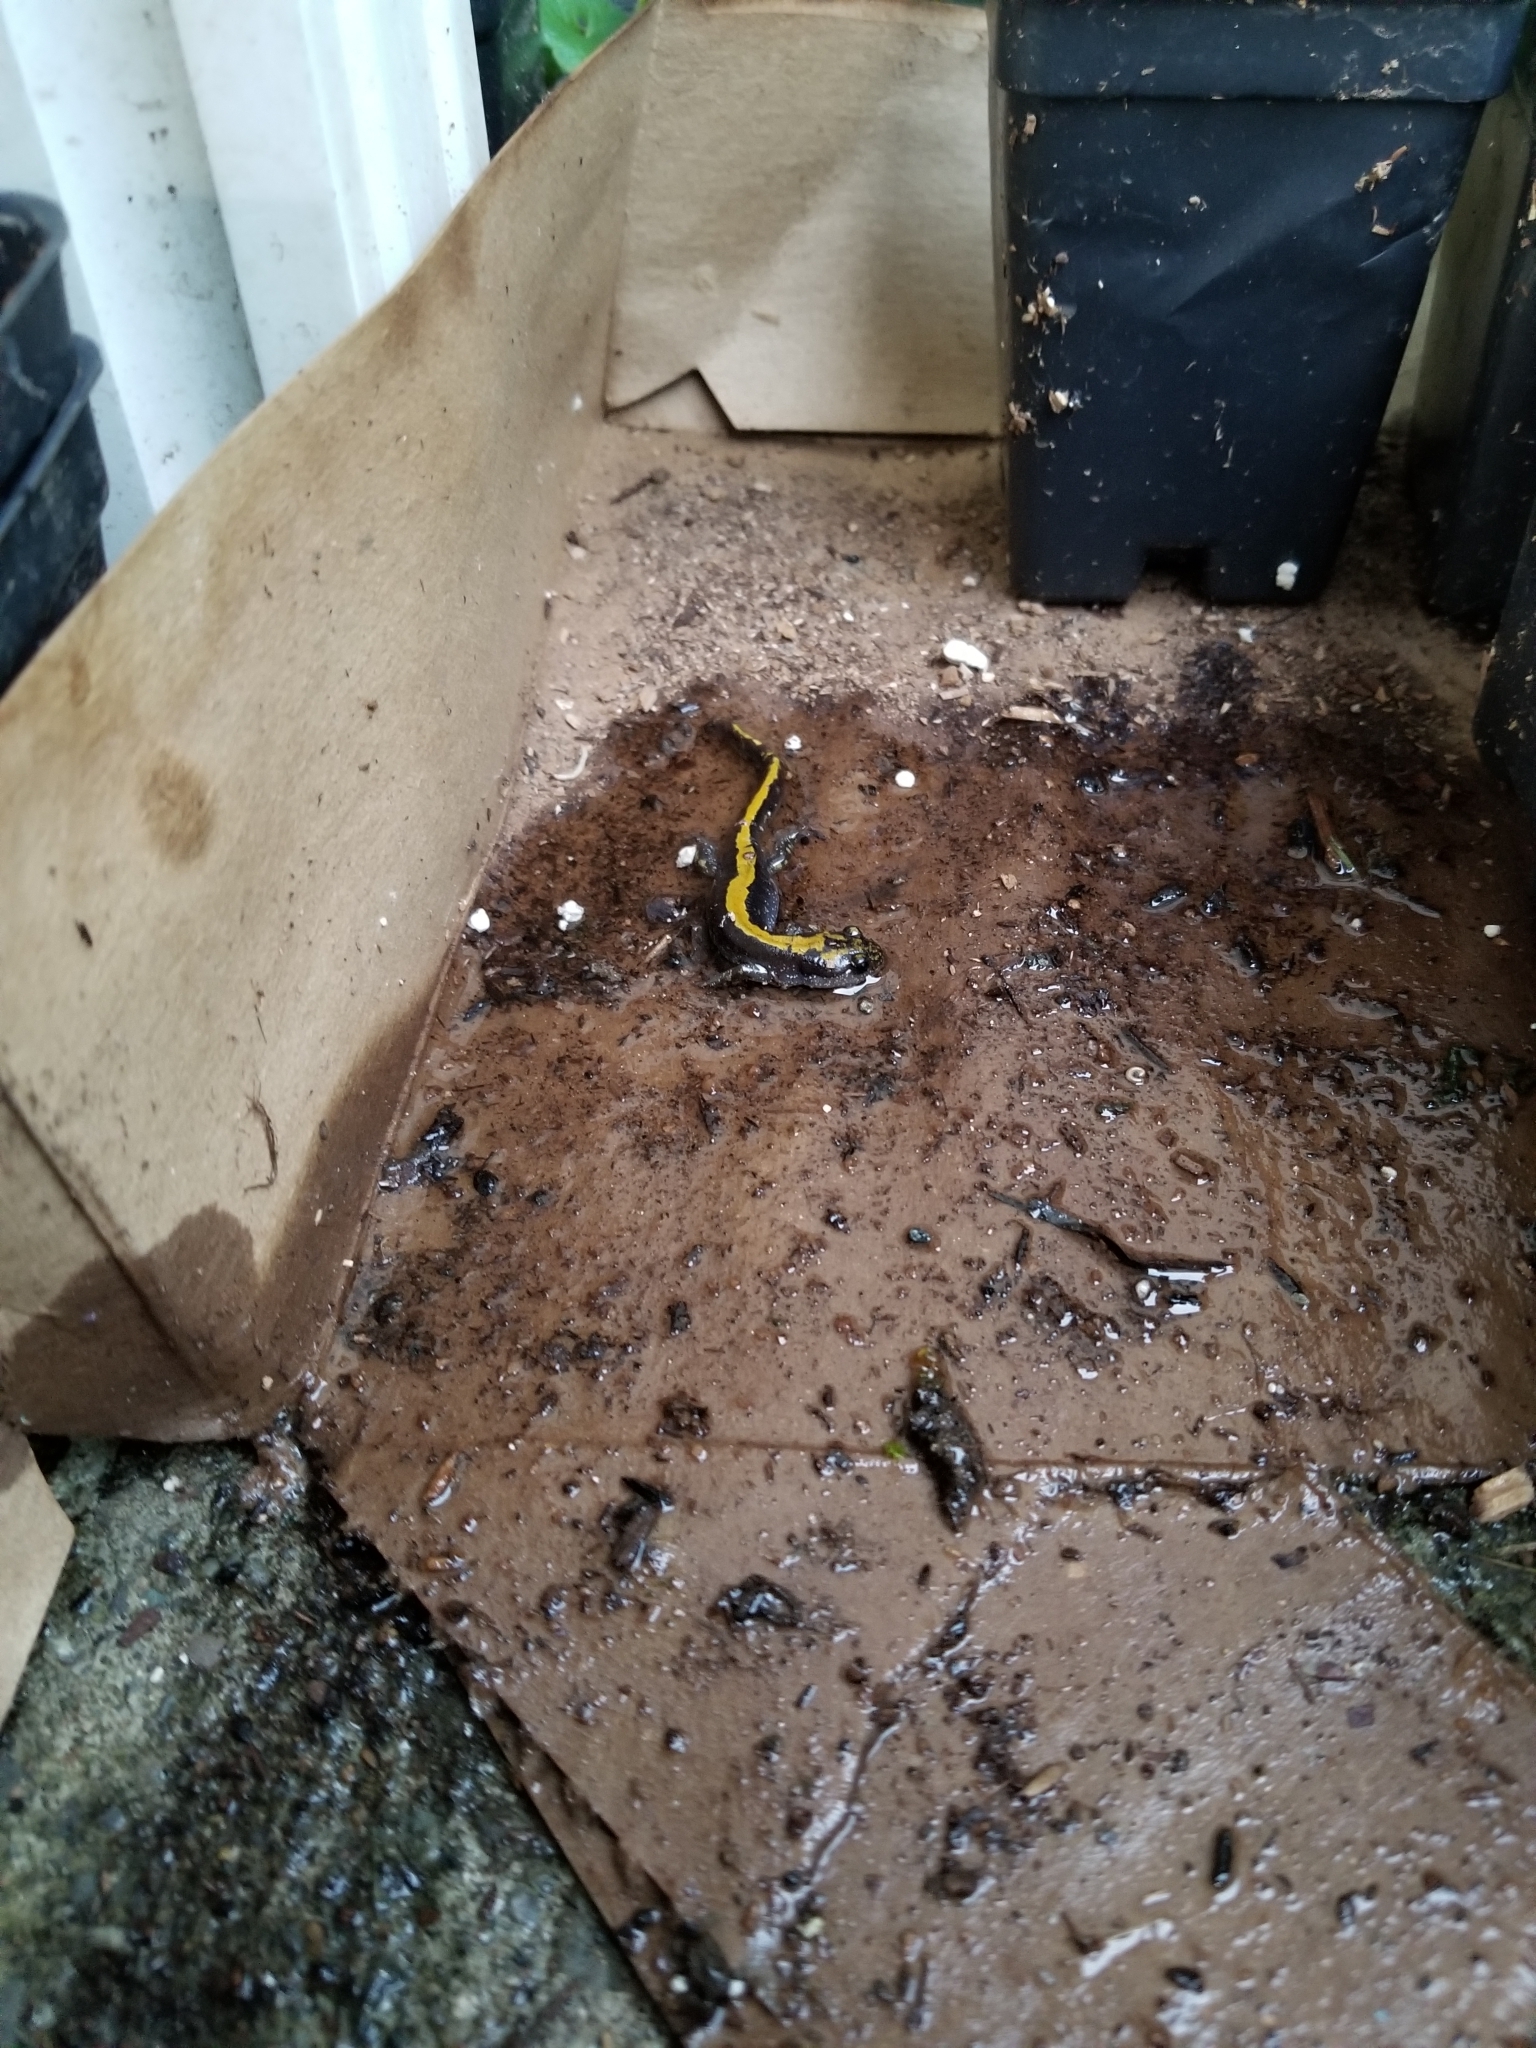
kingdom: Animalia
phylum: Chordata
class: Amphibia
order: Caudata
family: Ambystomatidae
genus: Ambystoma
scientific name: Ambystoma macrodactylum
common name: Long-toed salamander
